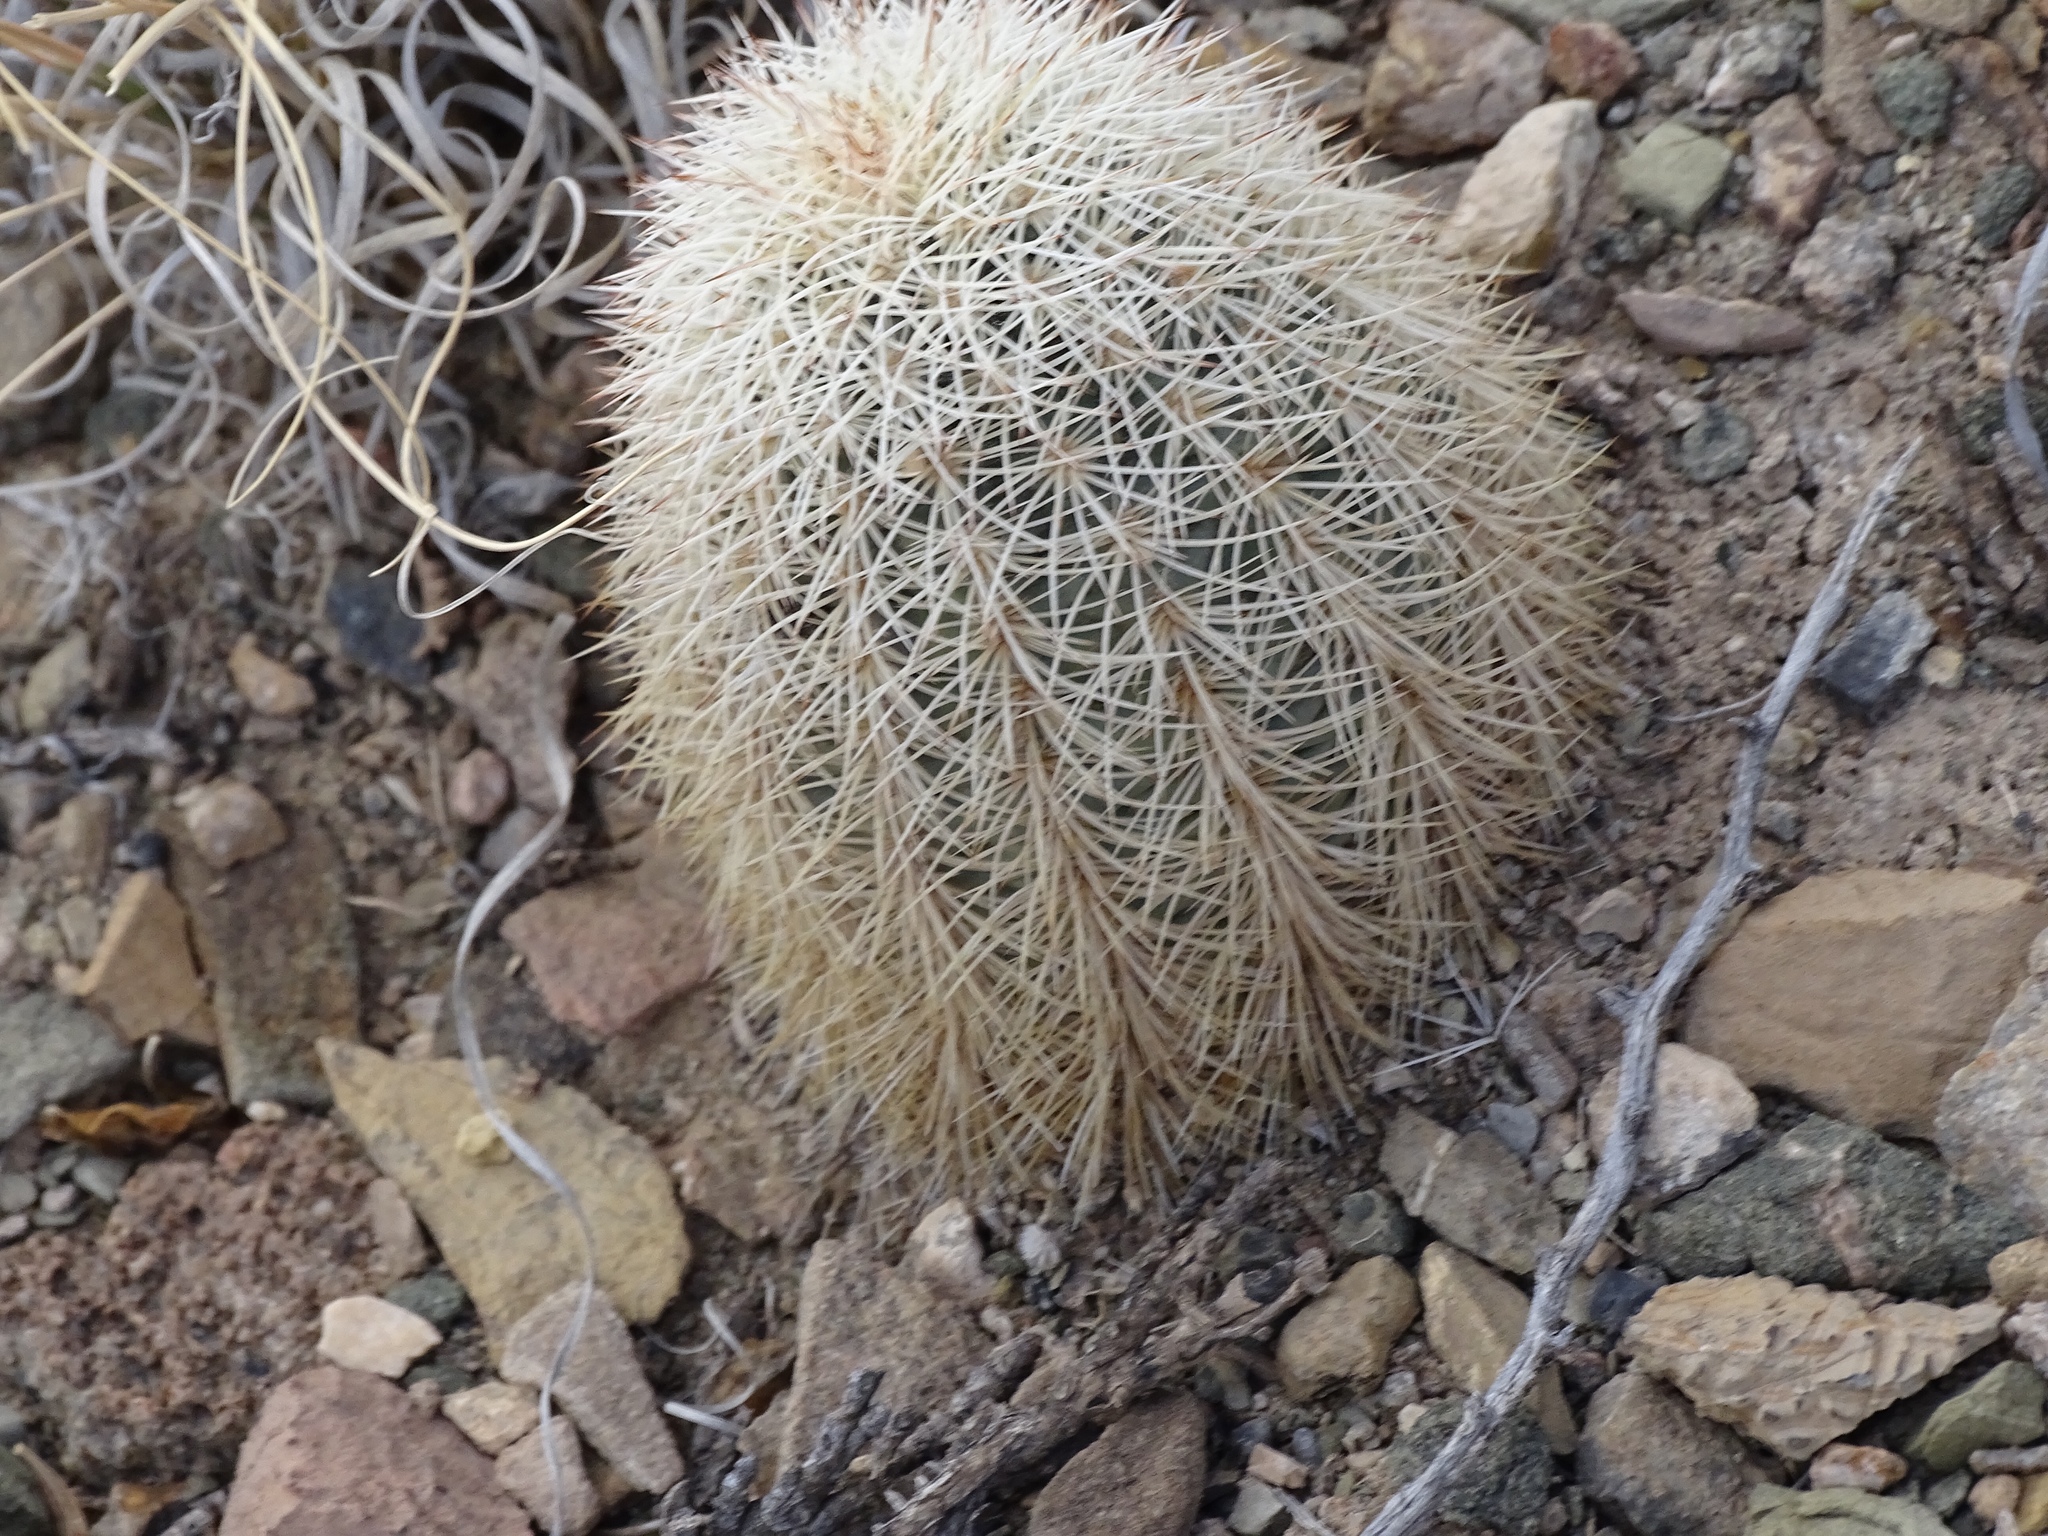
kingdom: Plantae
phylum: Tracheophyta
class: Magnoliopsida
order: Caryophyllales
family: Cactaceae
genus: Echinocereus
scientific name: Echinocereus dasyacanthus
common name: Spiny hedgehog cactus
